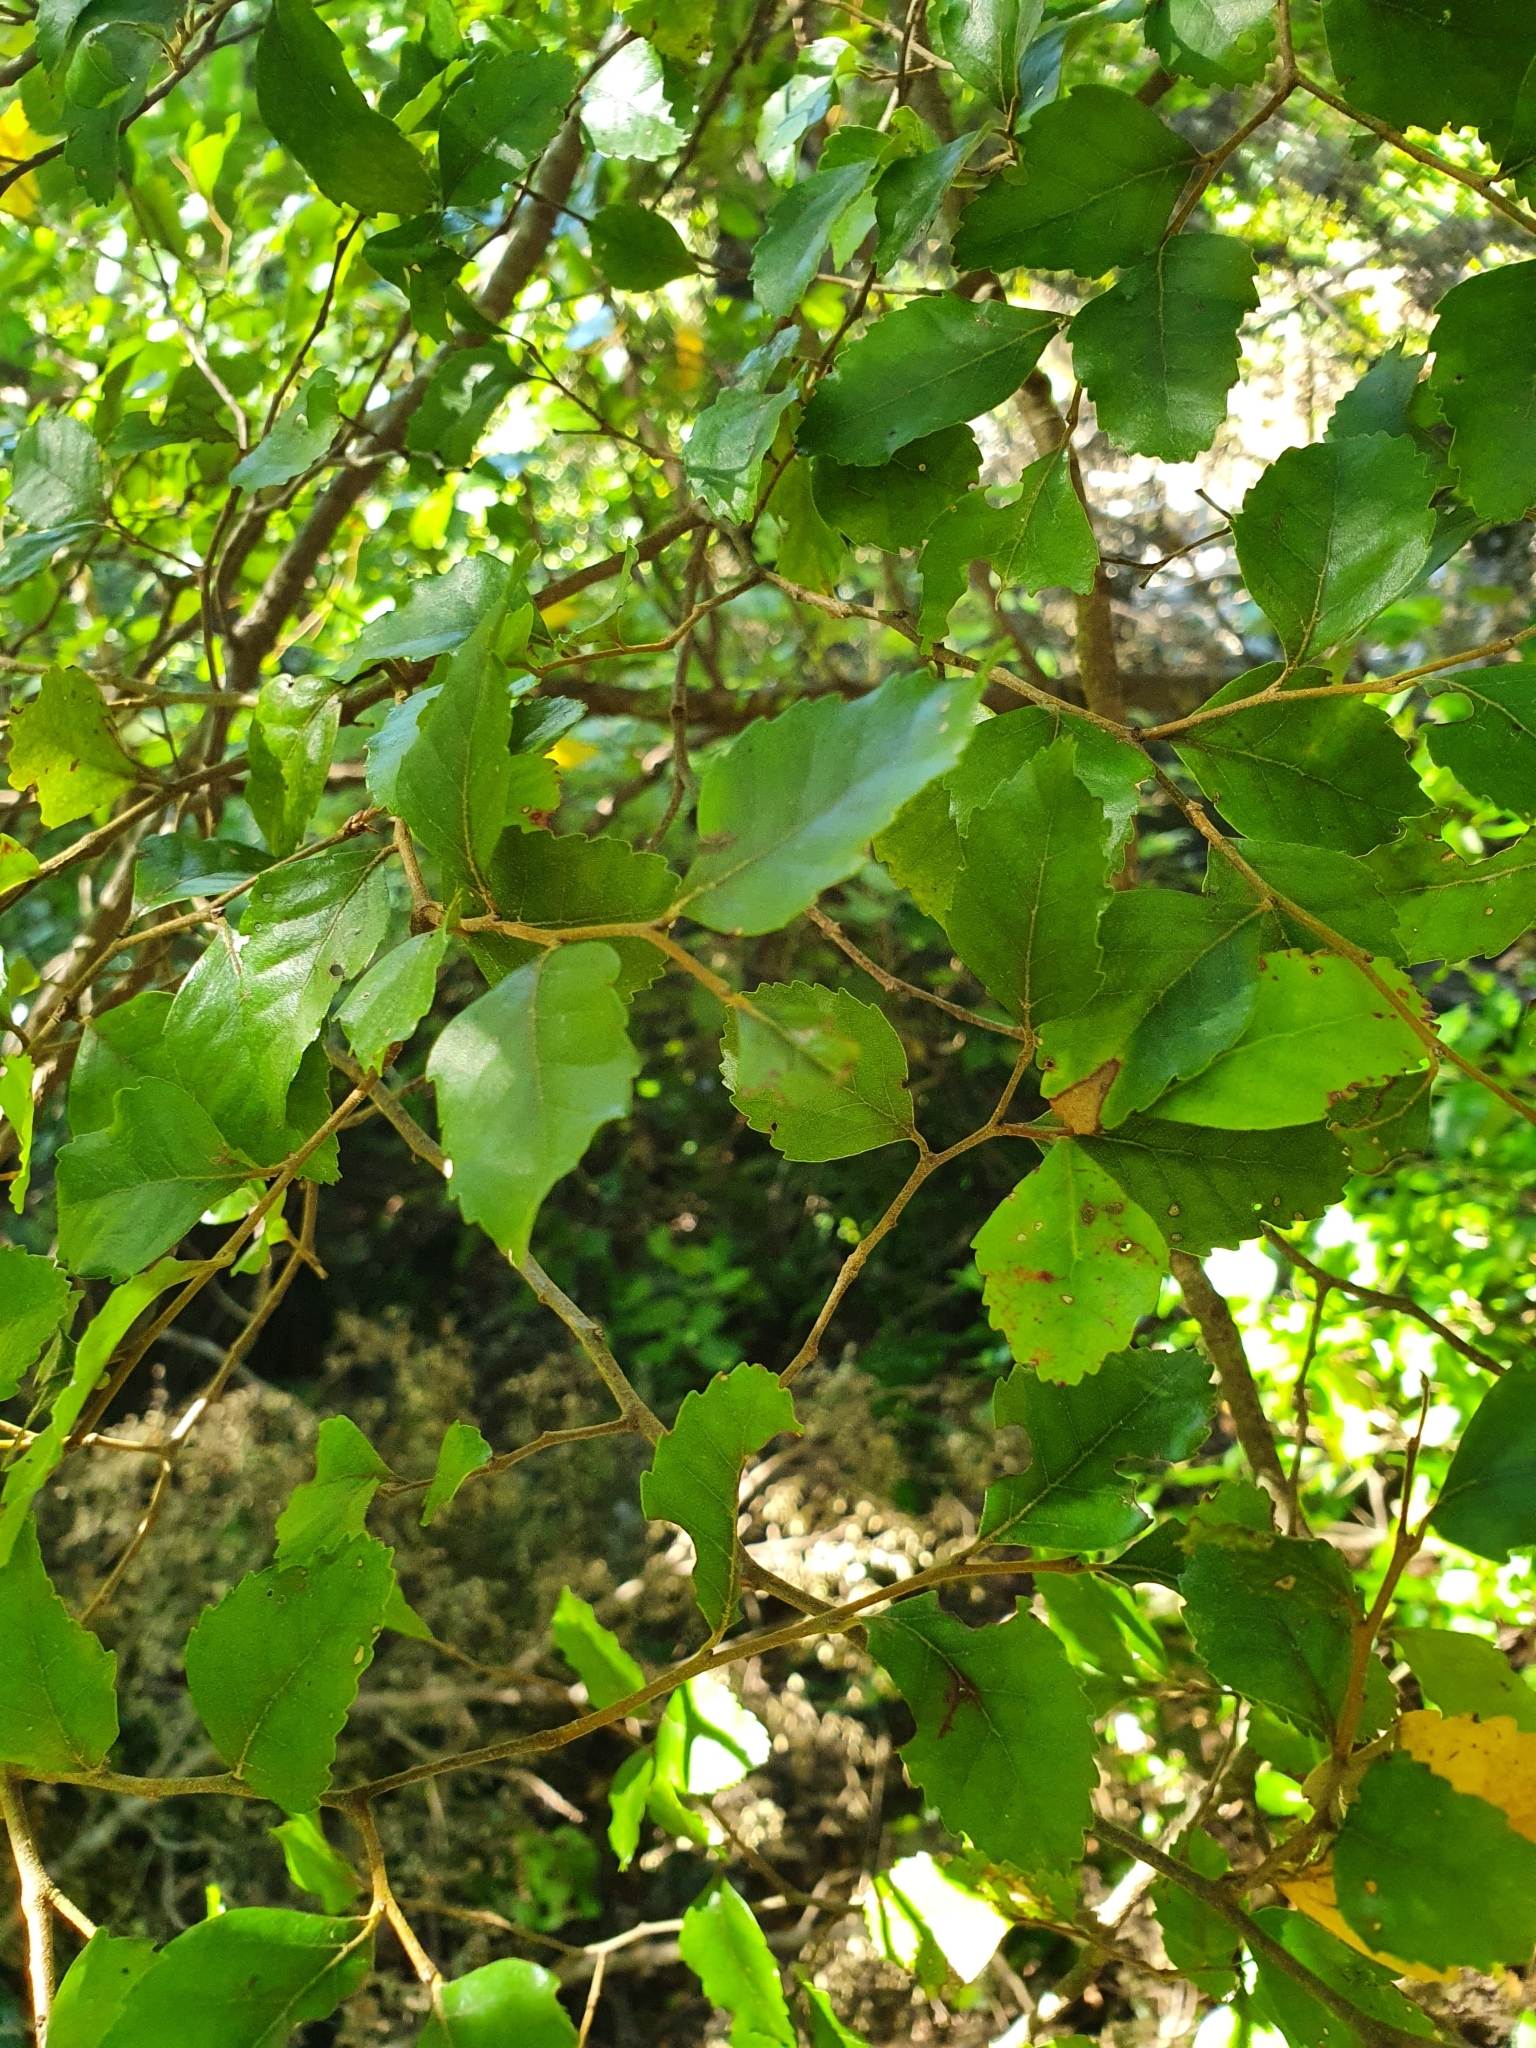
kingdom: Plantae
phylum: Tracheophyta
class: Magnoliopsida
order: Fagales
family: Nothofagaceae
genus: Nothofagus
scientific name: Nothofagus truncata
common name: Hard beech
